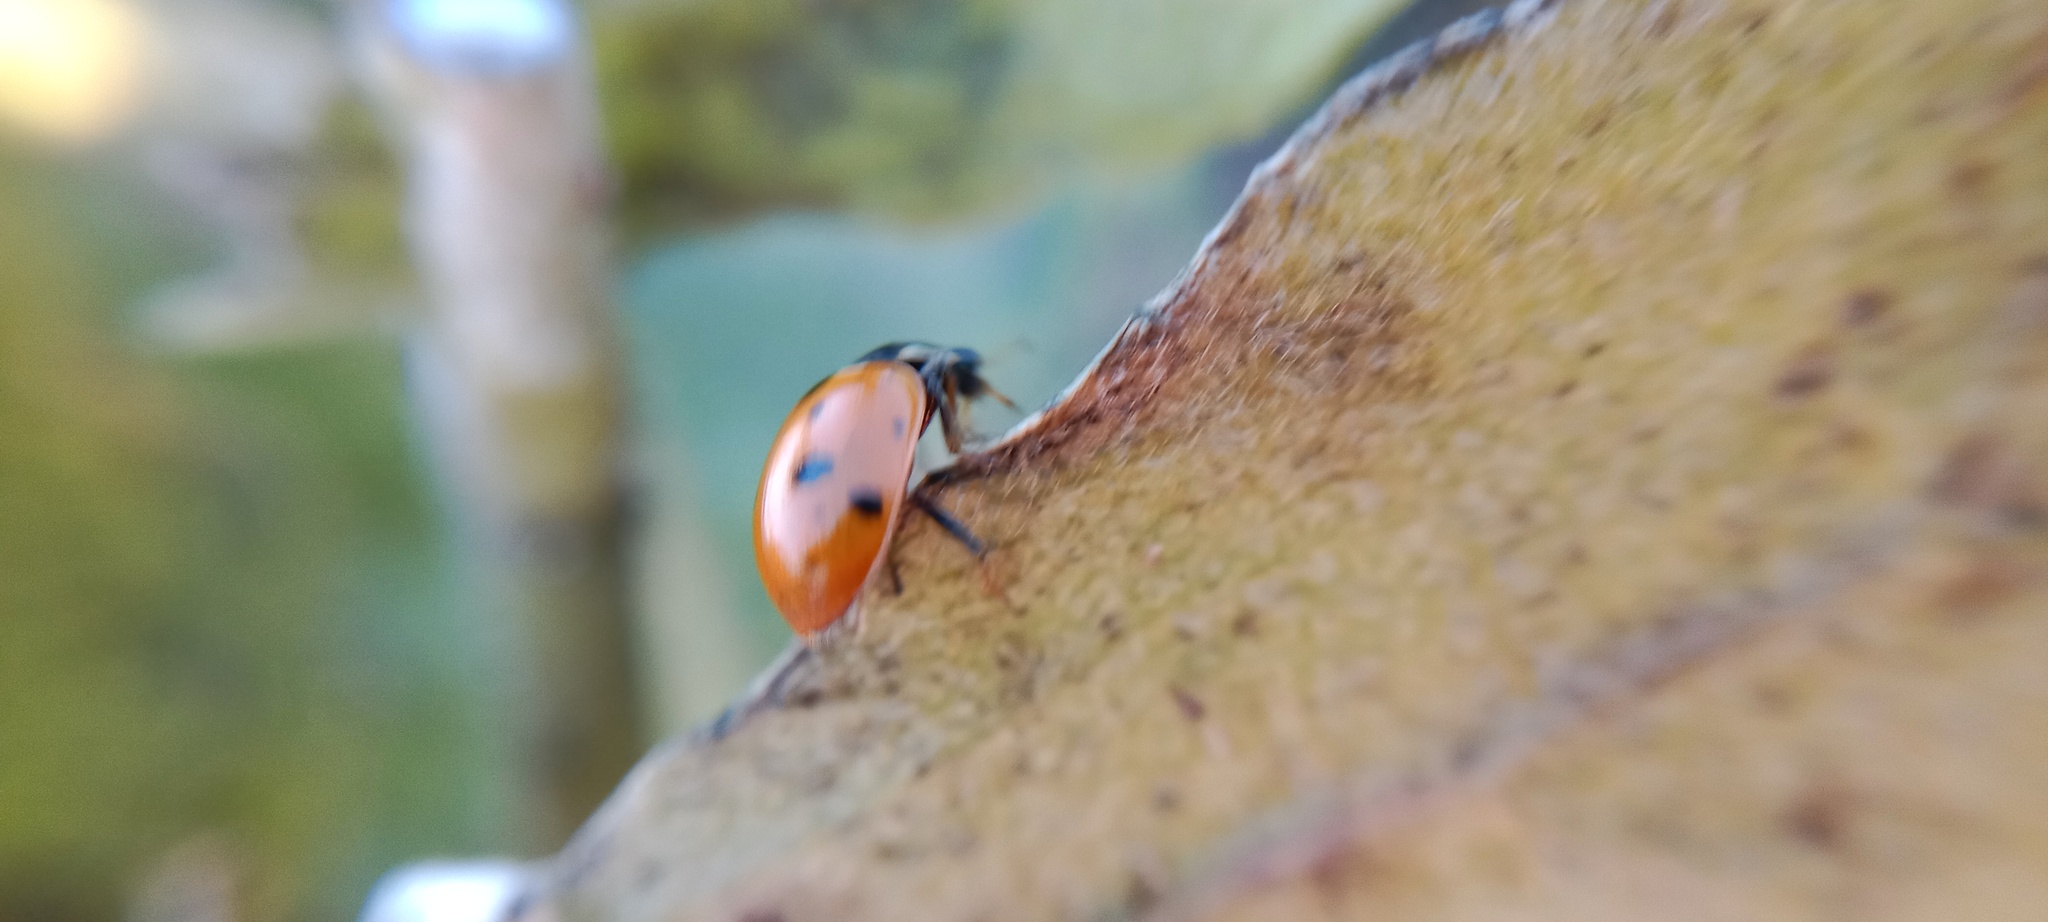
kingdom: Animalia
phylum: Arthropoda
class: Insecta
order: Coleoptera
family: Coccinellidae
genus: Hippodamia
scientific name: Hippodamia variegata
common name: Ladybird beetle
